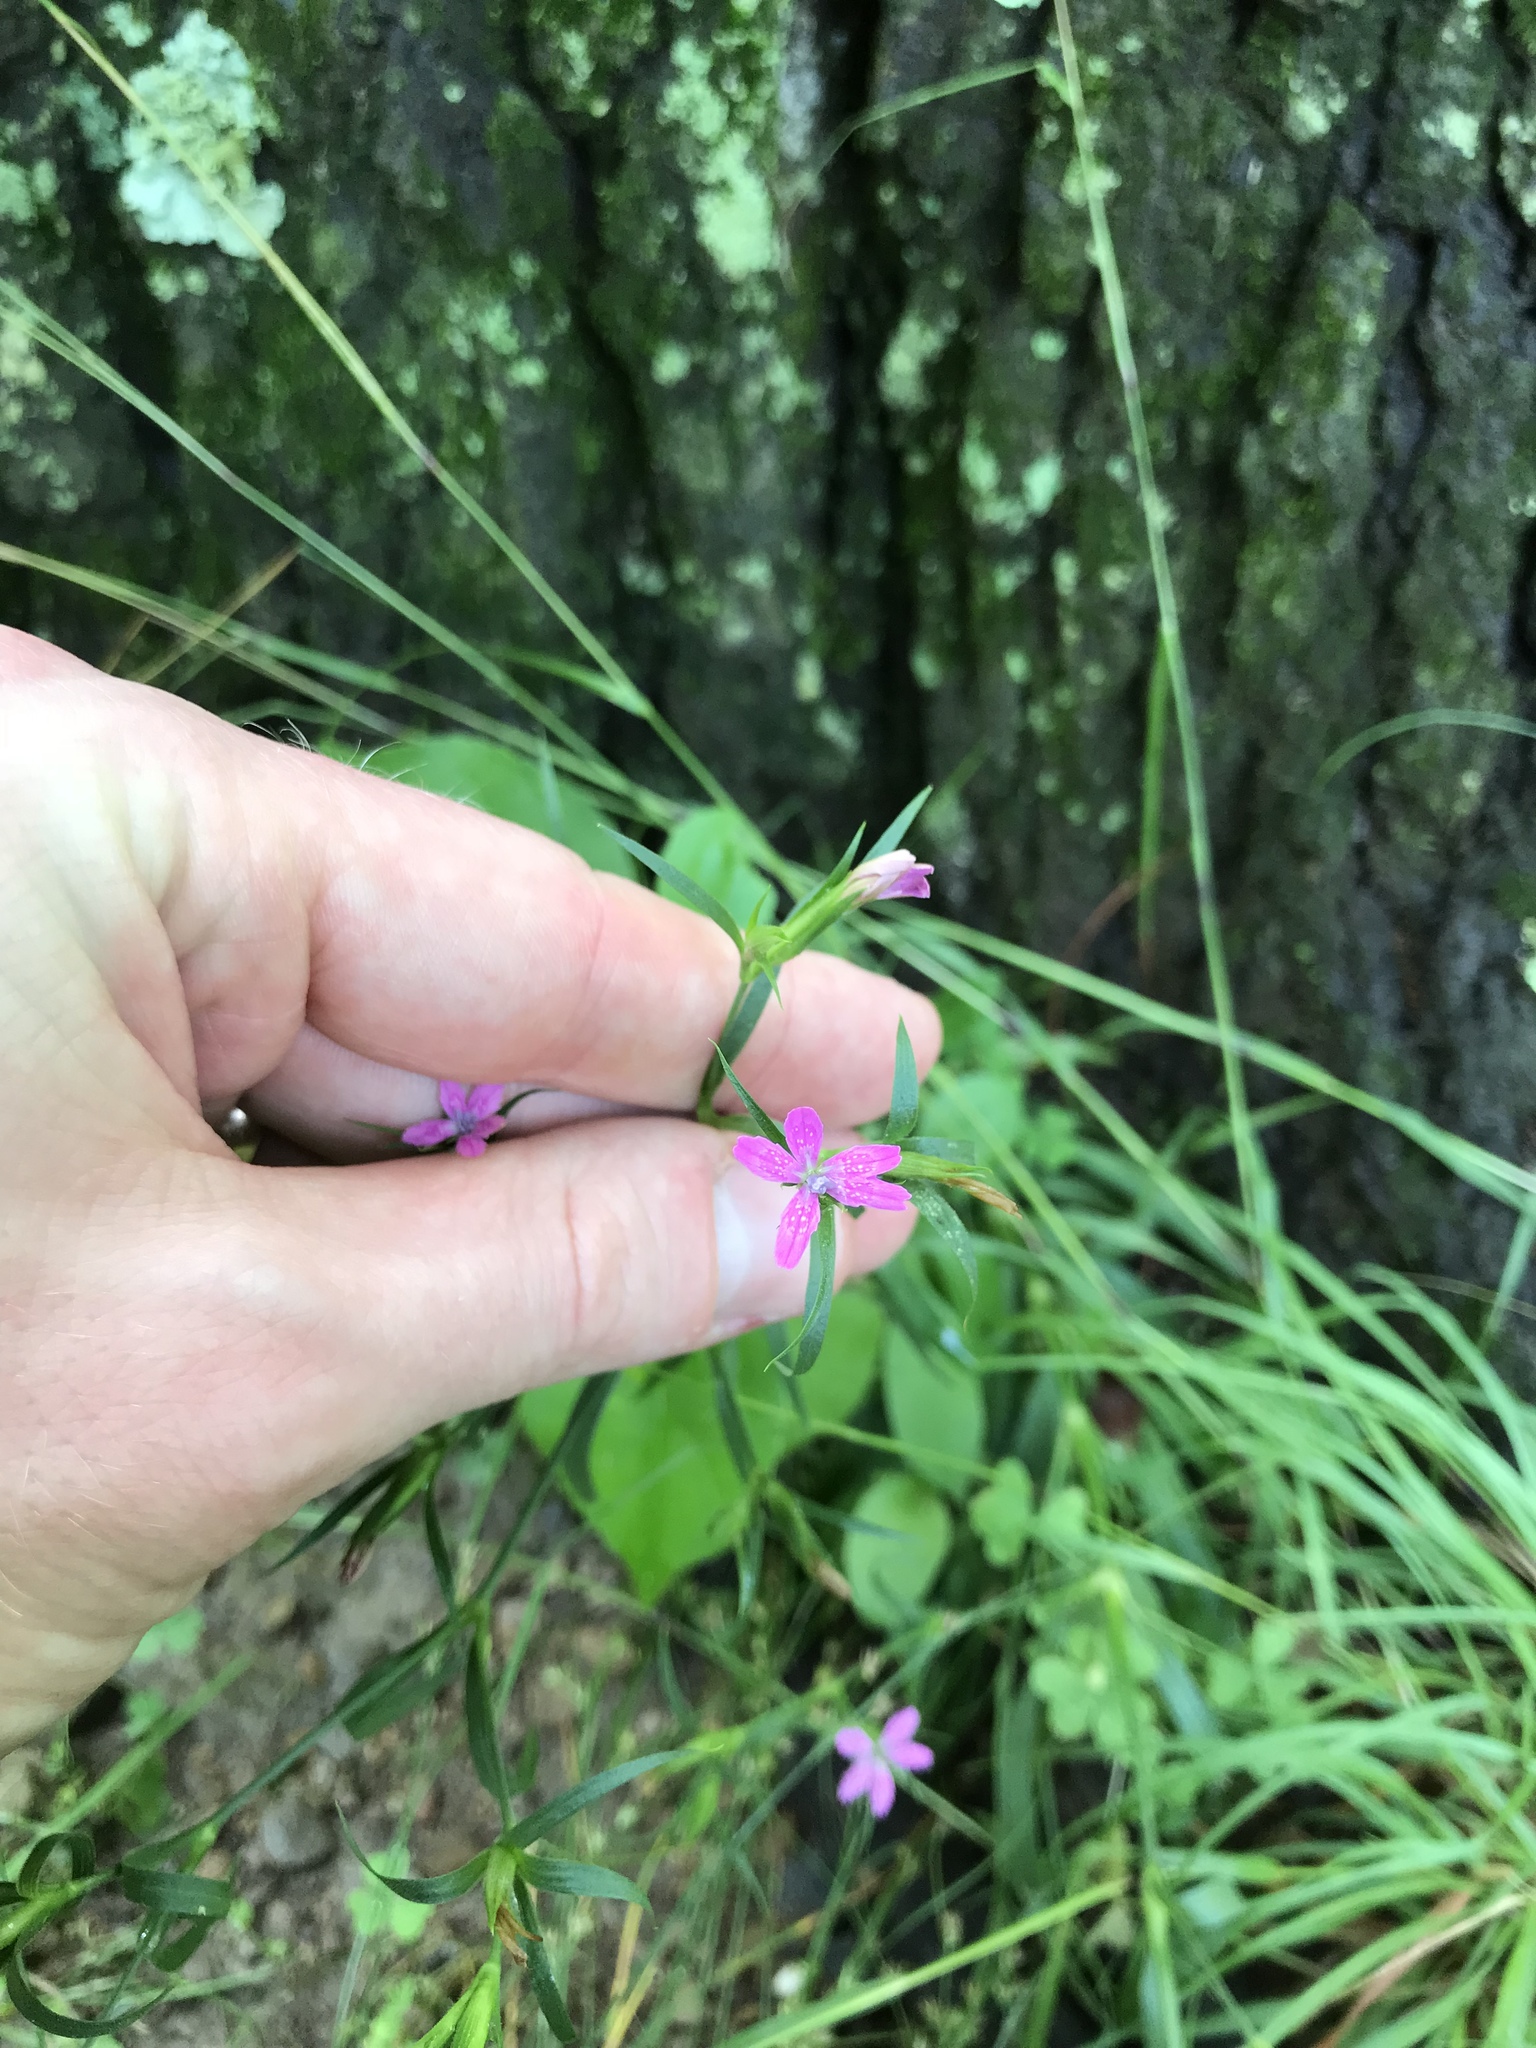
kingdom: Plantae
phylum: Tracheophyta
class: Magnoliopsida
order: Caryophyllales
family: Caryophyllaceae
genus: Dianthus
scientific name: Dianthus armeria
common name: Deptford pink
